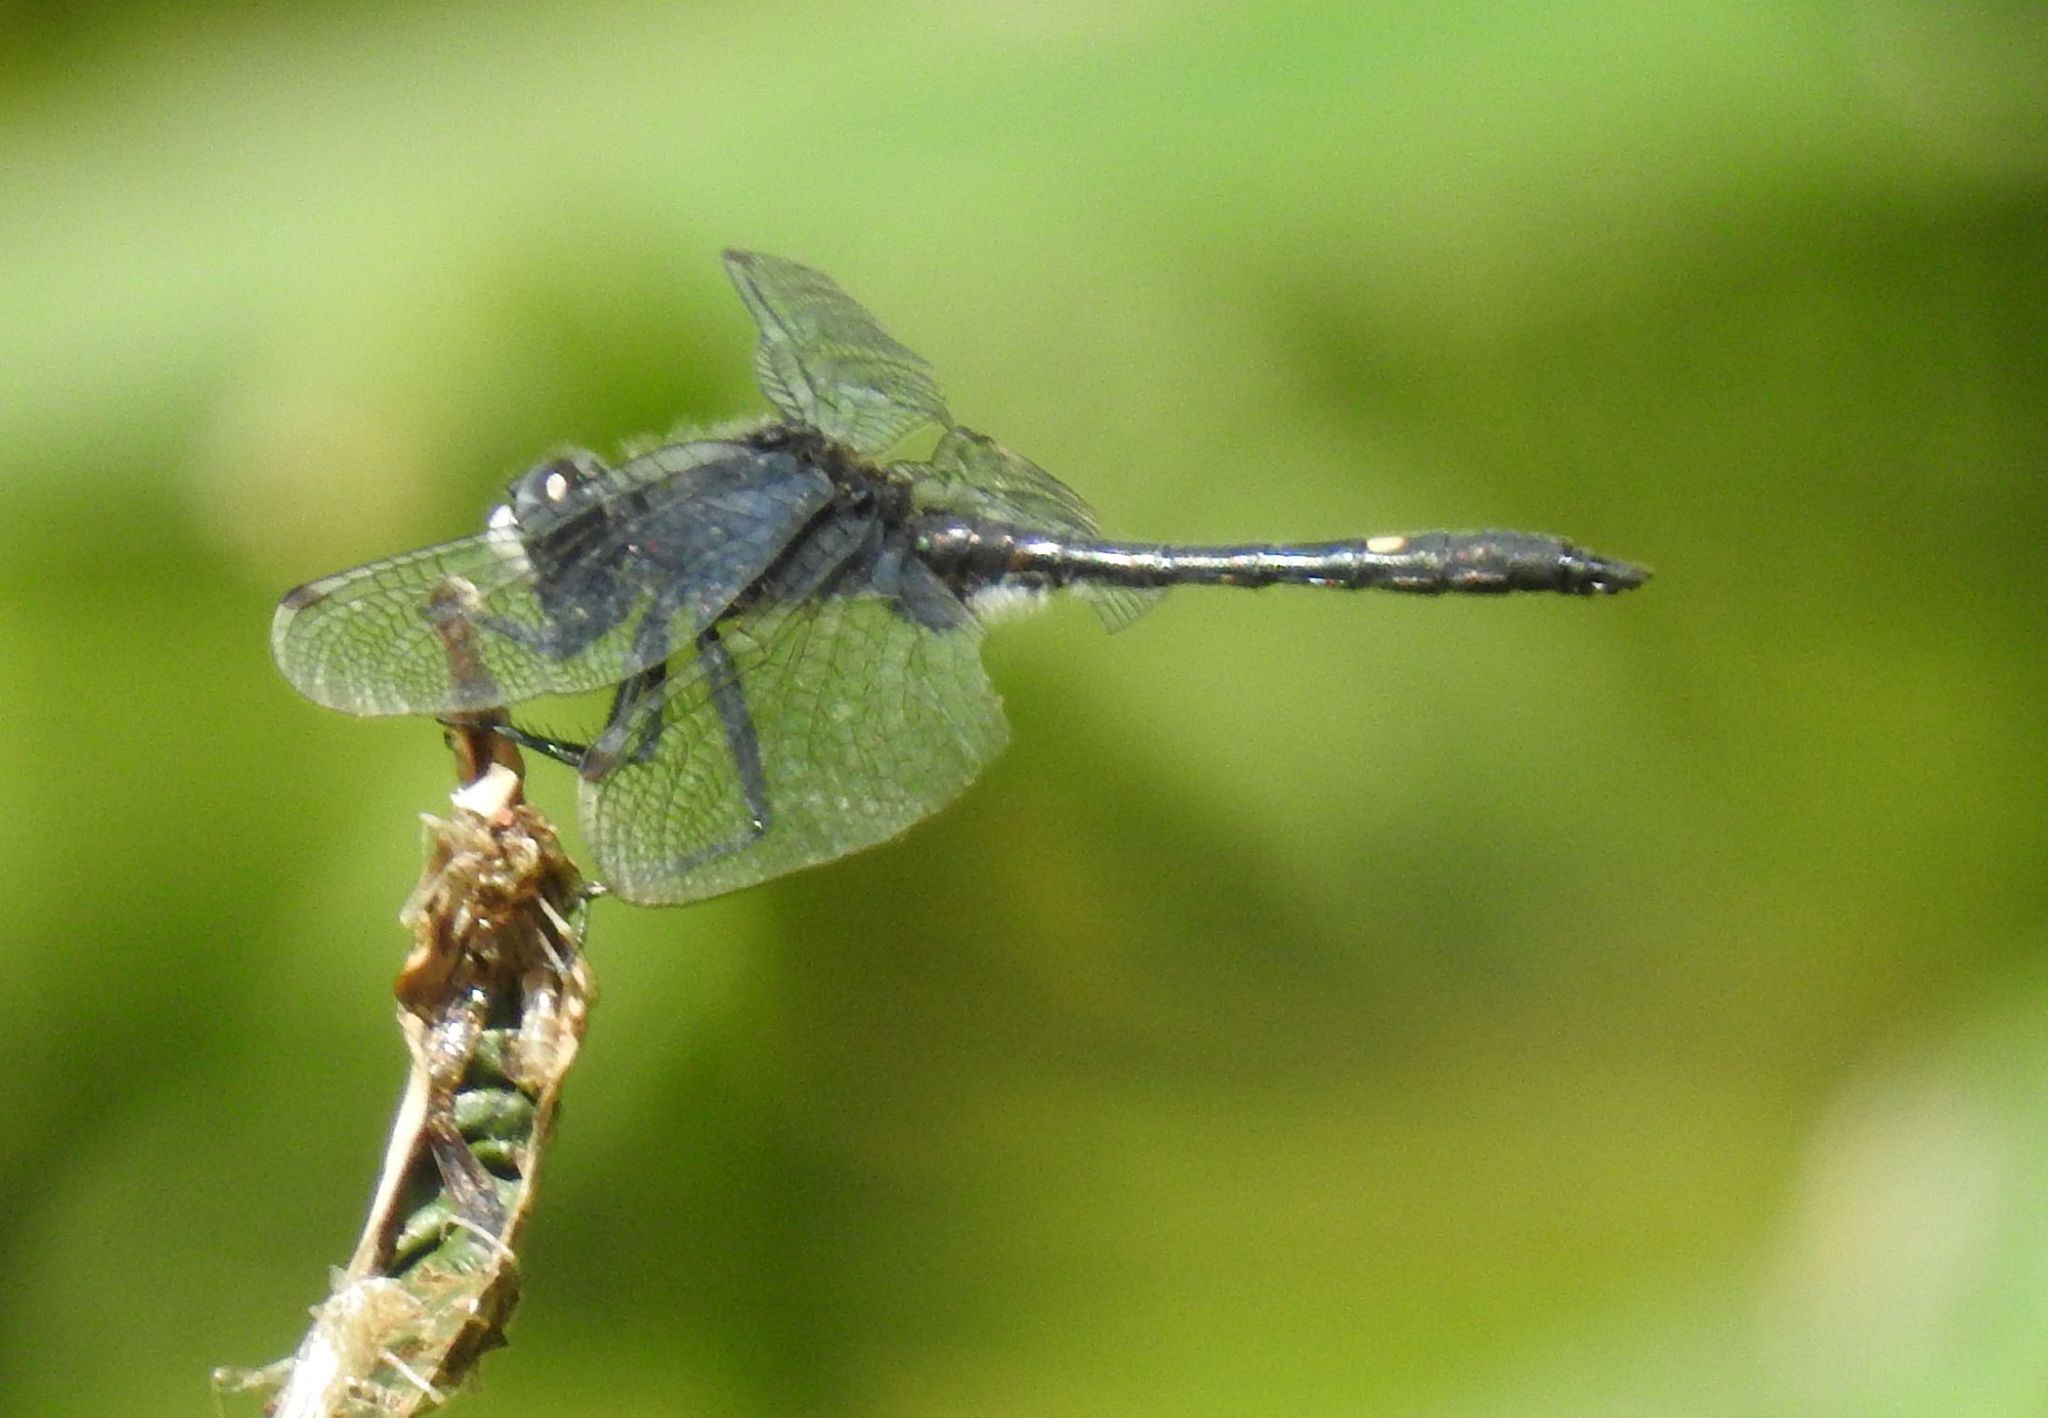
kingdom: Animalia
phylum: Arthropoda
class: Insecta
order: Odonata
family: Libellulidae
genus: Leucorrhinia
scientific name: Leucorrhinia intacta
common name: Dot-tailed whiteface
